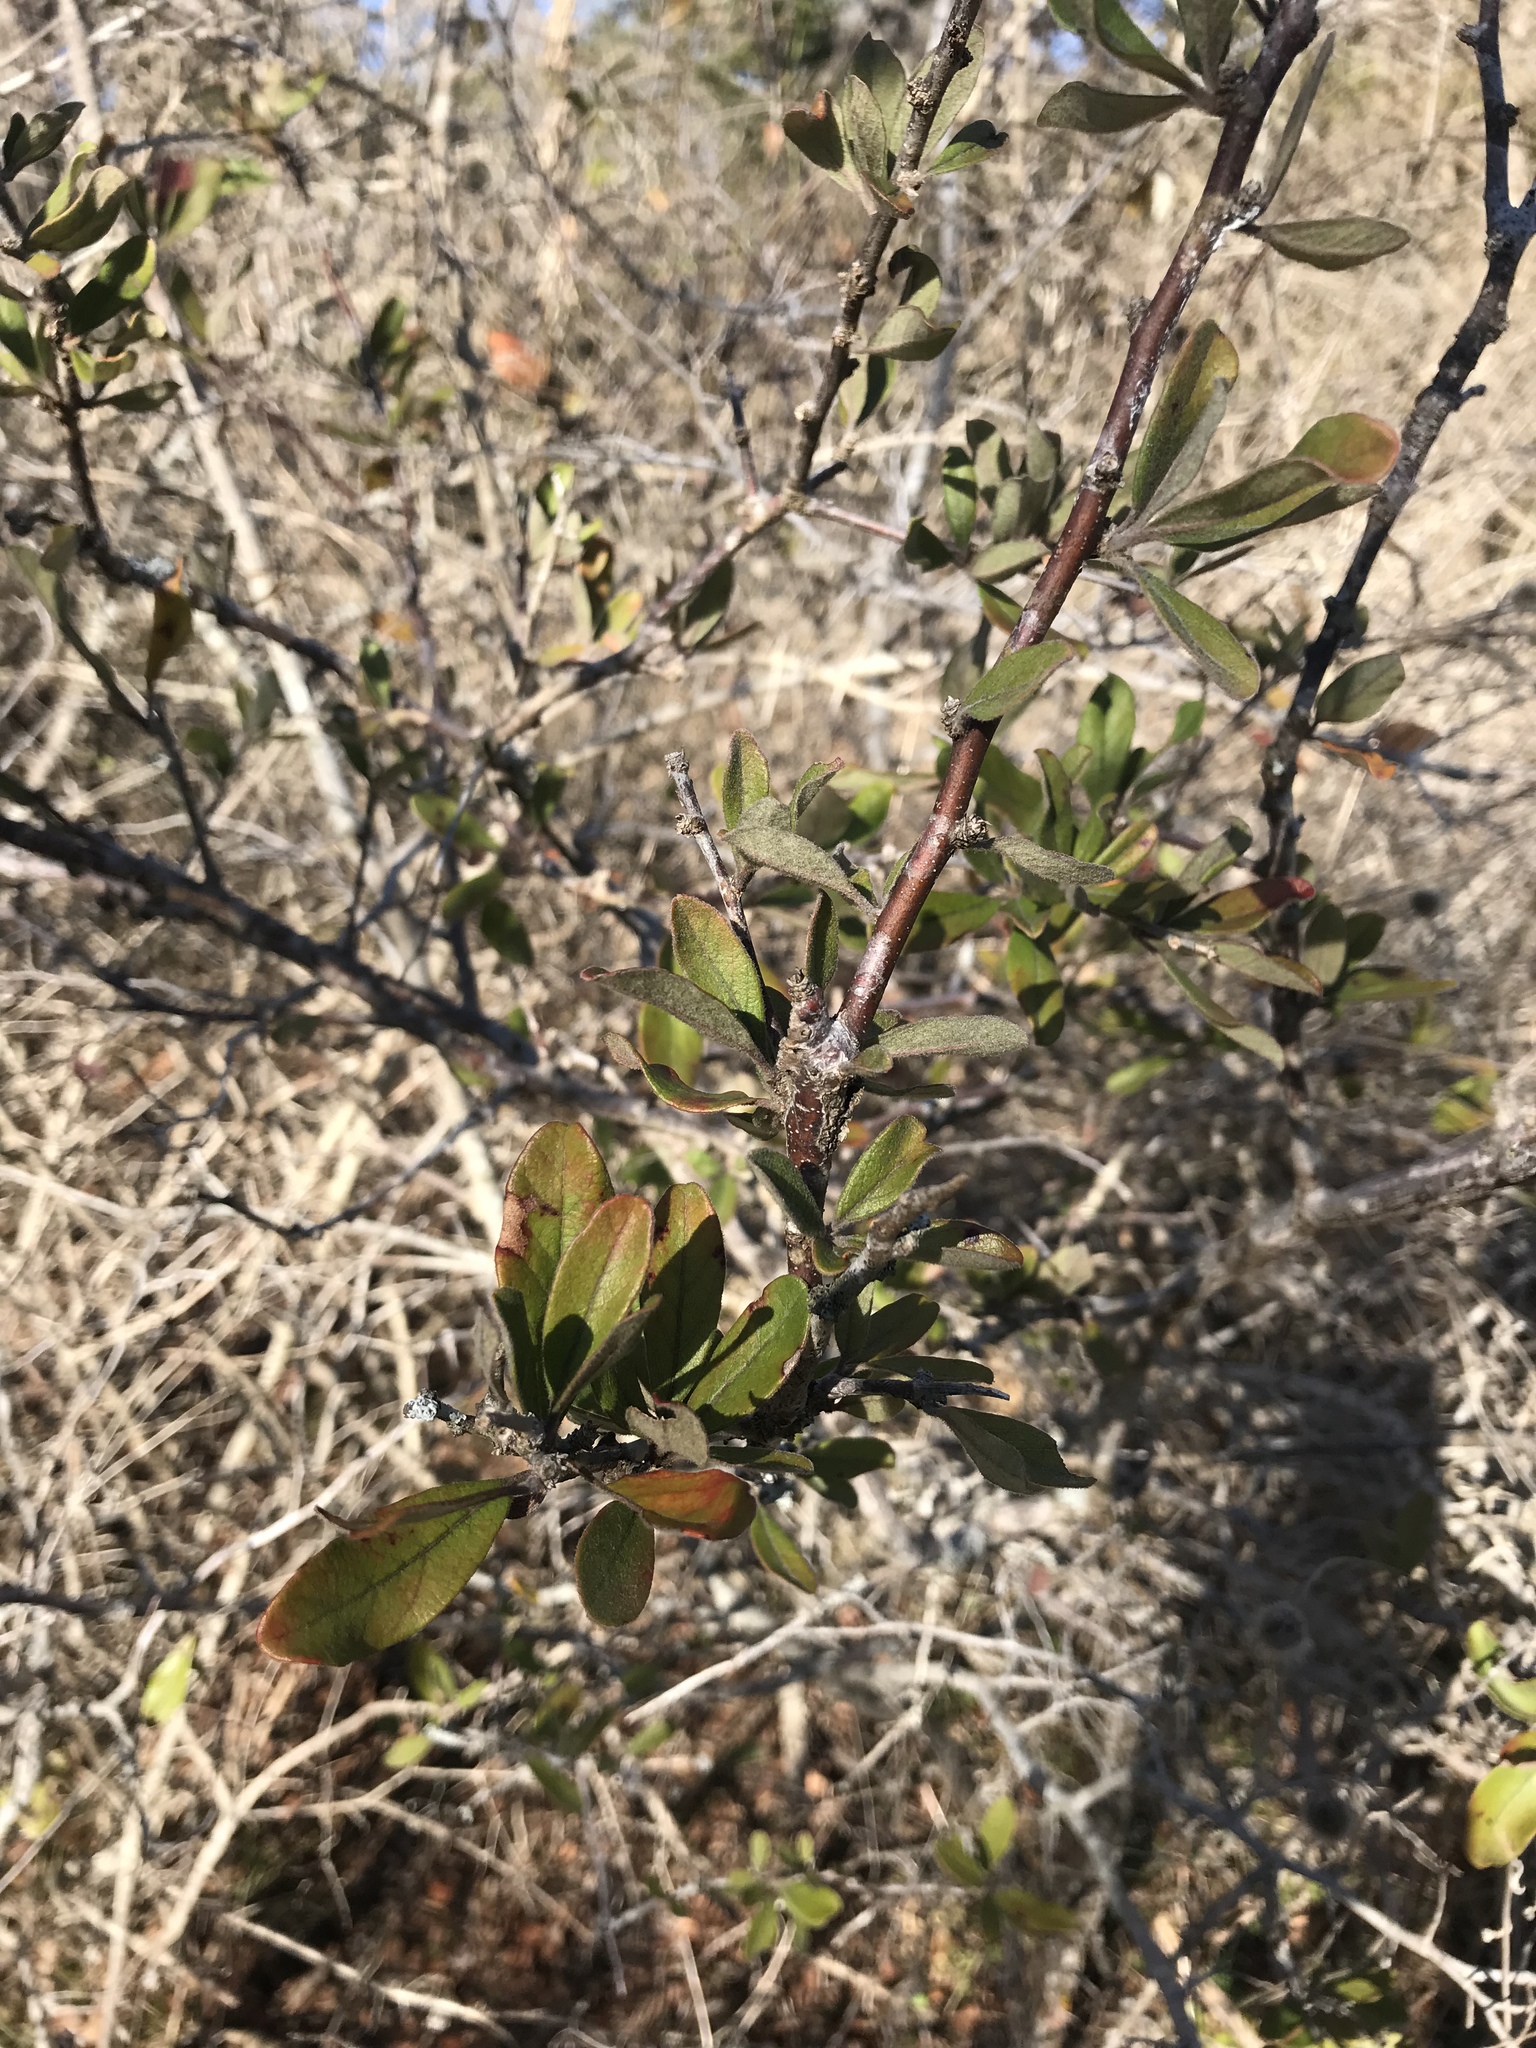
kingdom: Plantae
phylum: Tracheophyta
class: Magnoliopsida
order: Ericales
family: Sapotaceae
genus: Sideroxylon
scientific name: Sideroxylon lanuginosum
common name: Chittamwood
